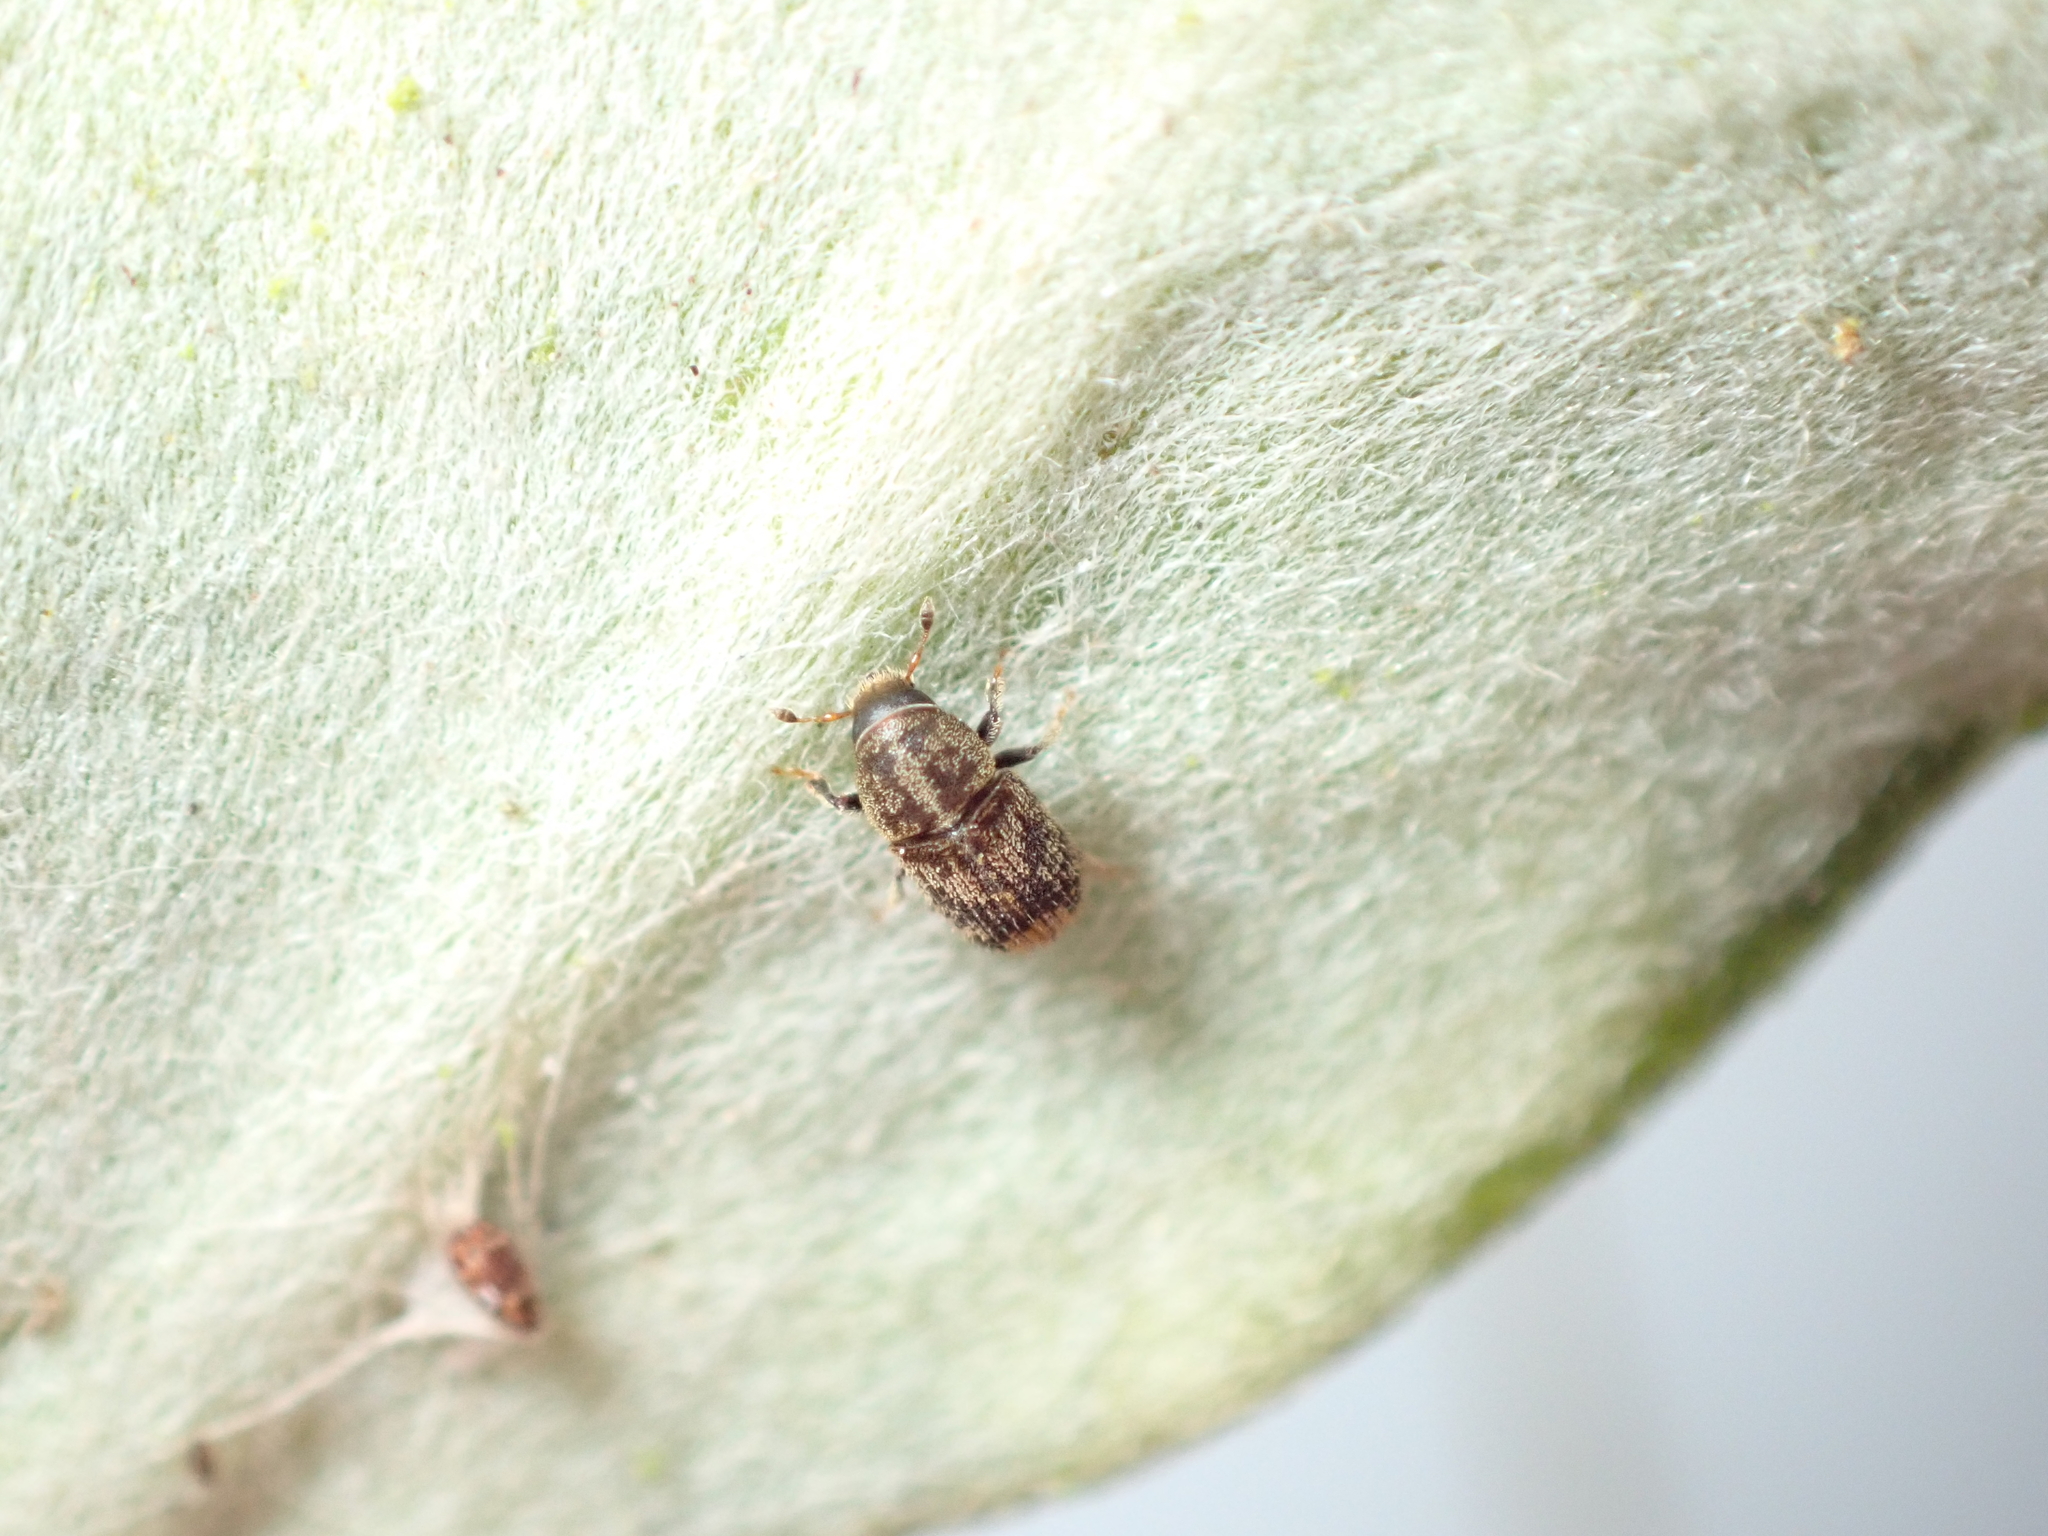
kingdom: Animalia
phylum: Arthropoda
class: Insecta
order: Coleoptera
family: Curculionidae
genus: Chaetoptelius
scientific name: Chaetoptelius mundulus
